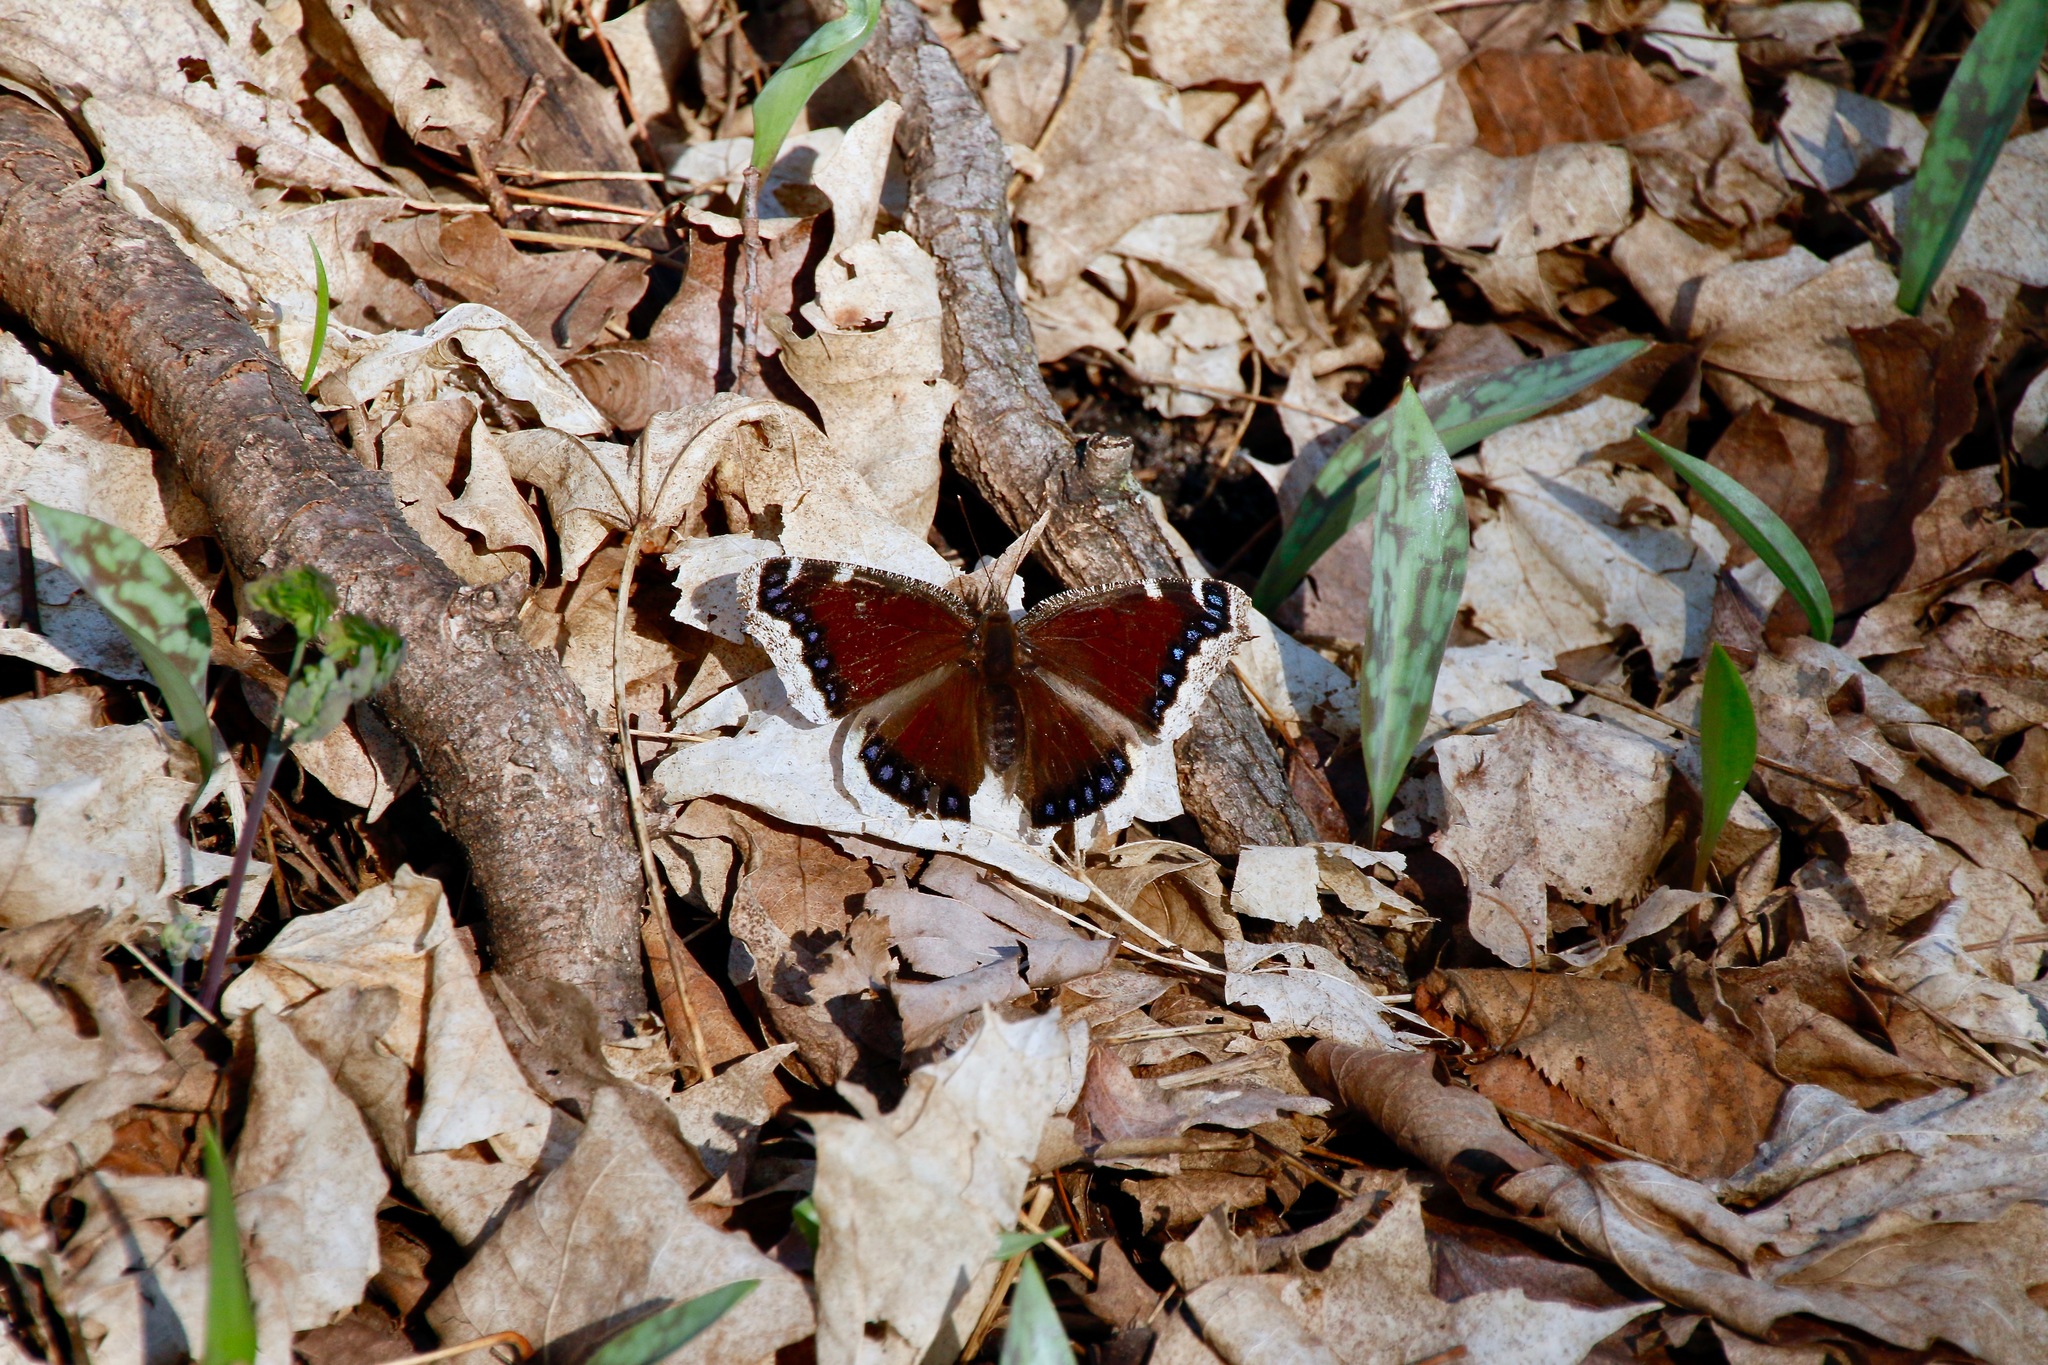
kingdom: Animalia
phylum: Arthropoda
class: Insecta
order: Lepidoptera
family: Nymphalidae
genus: Nymphalis
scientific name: Nymphalis antiopa
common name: Camberwell beauty
